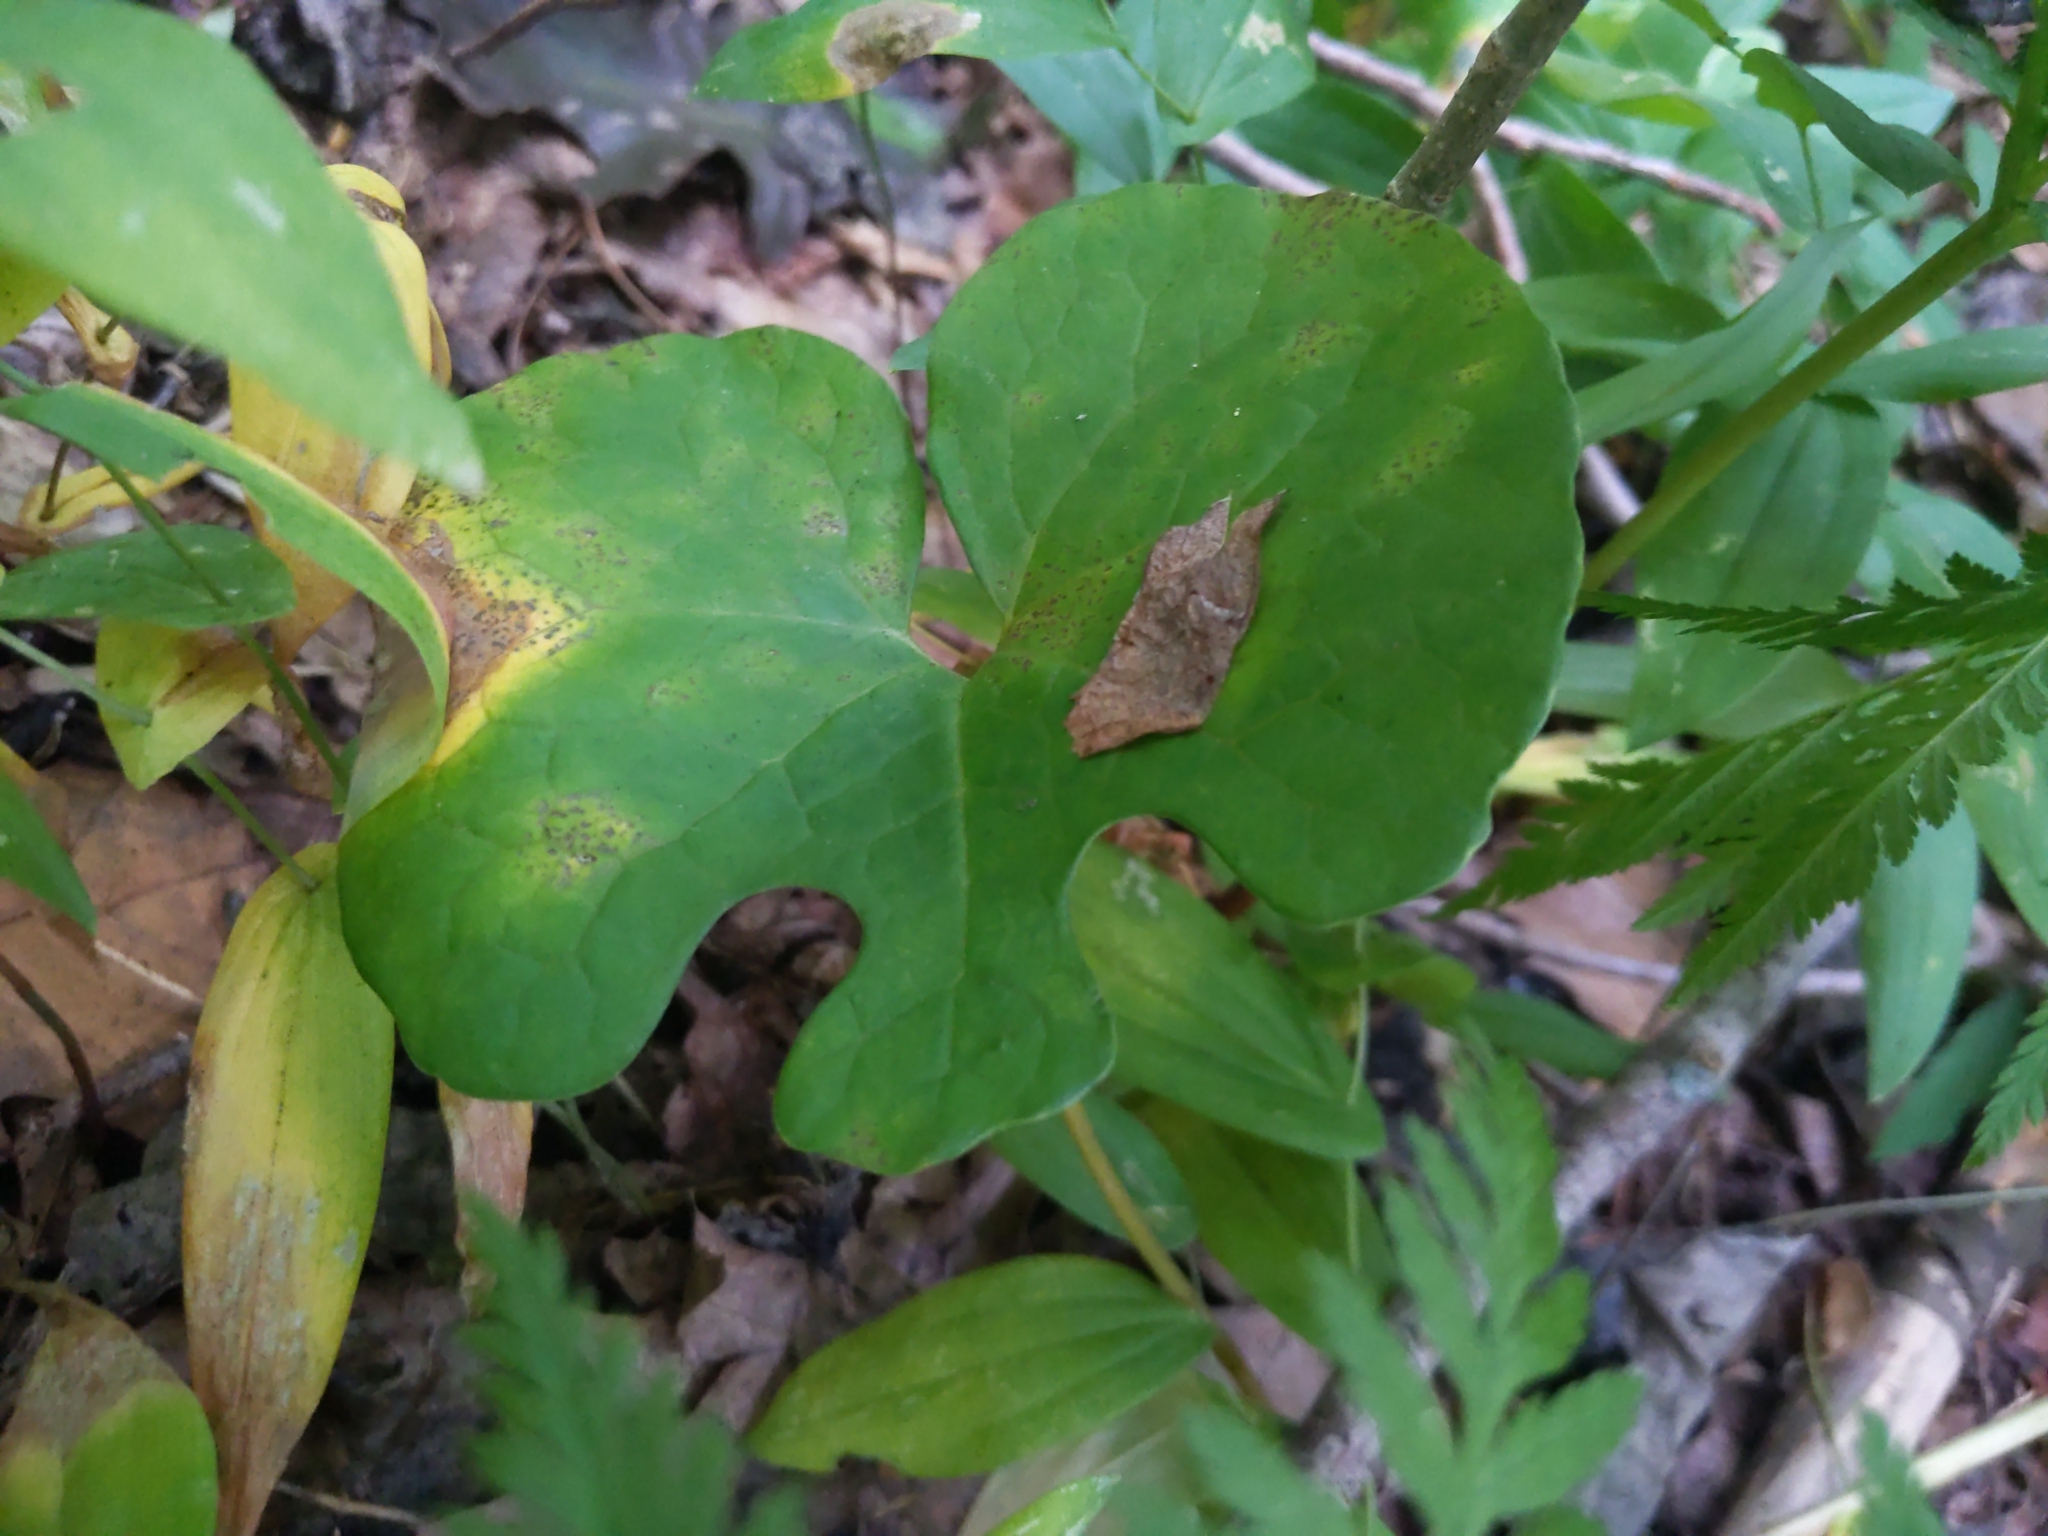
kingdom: Plantae
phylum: Tracheophyta
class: Magnoliopsida
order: Ranunculales
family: Papaveraceae
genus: Sanguinaria
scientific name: Sanguinaria canadensis
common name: Bloodroot
